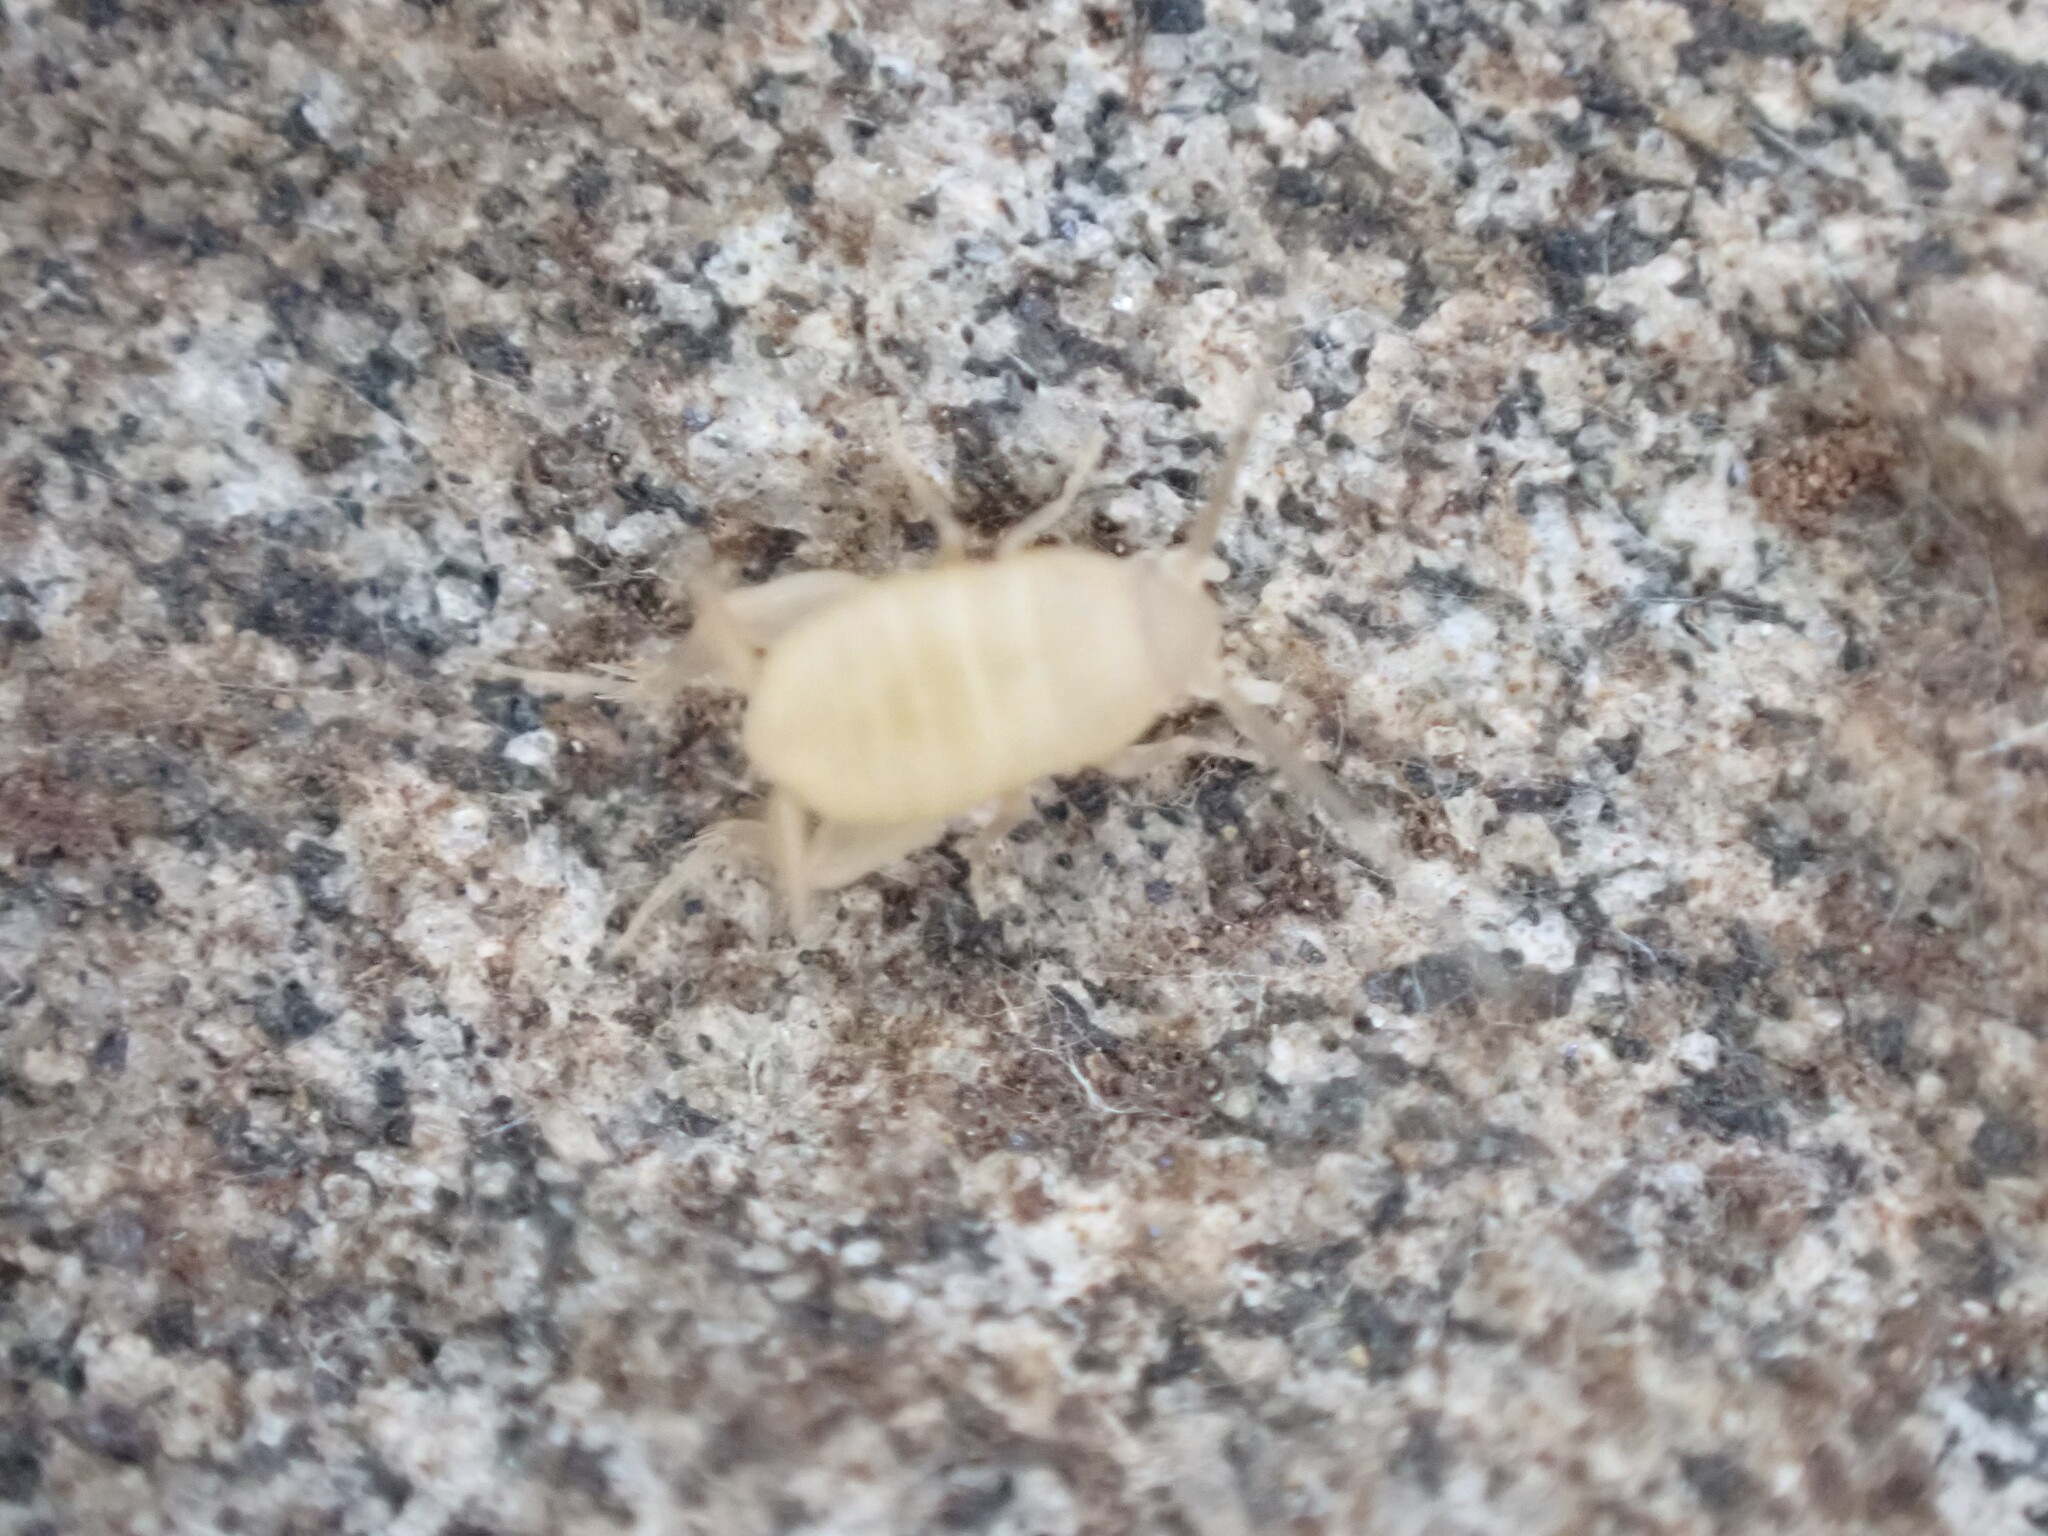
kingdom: Animalia
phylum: Arthropoda
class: Insecta
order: Orthoptera
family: Myrmecophilidae
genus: Myrmecophilus
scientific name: Myrmecophilus oregonensis
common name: Oregon ant cricket
